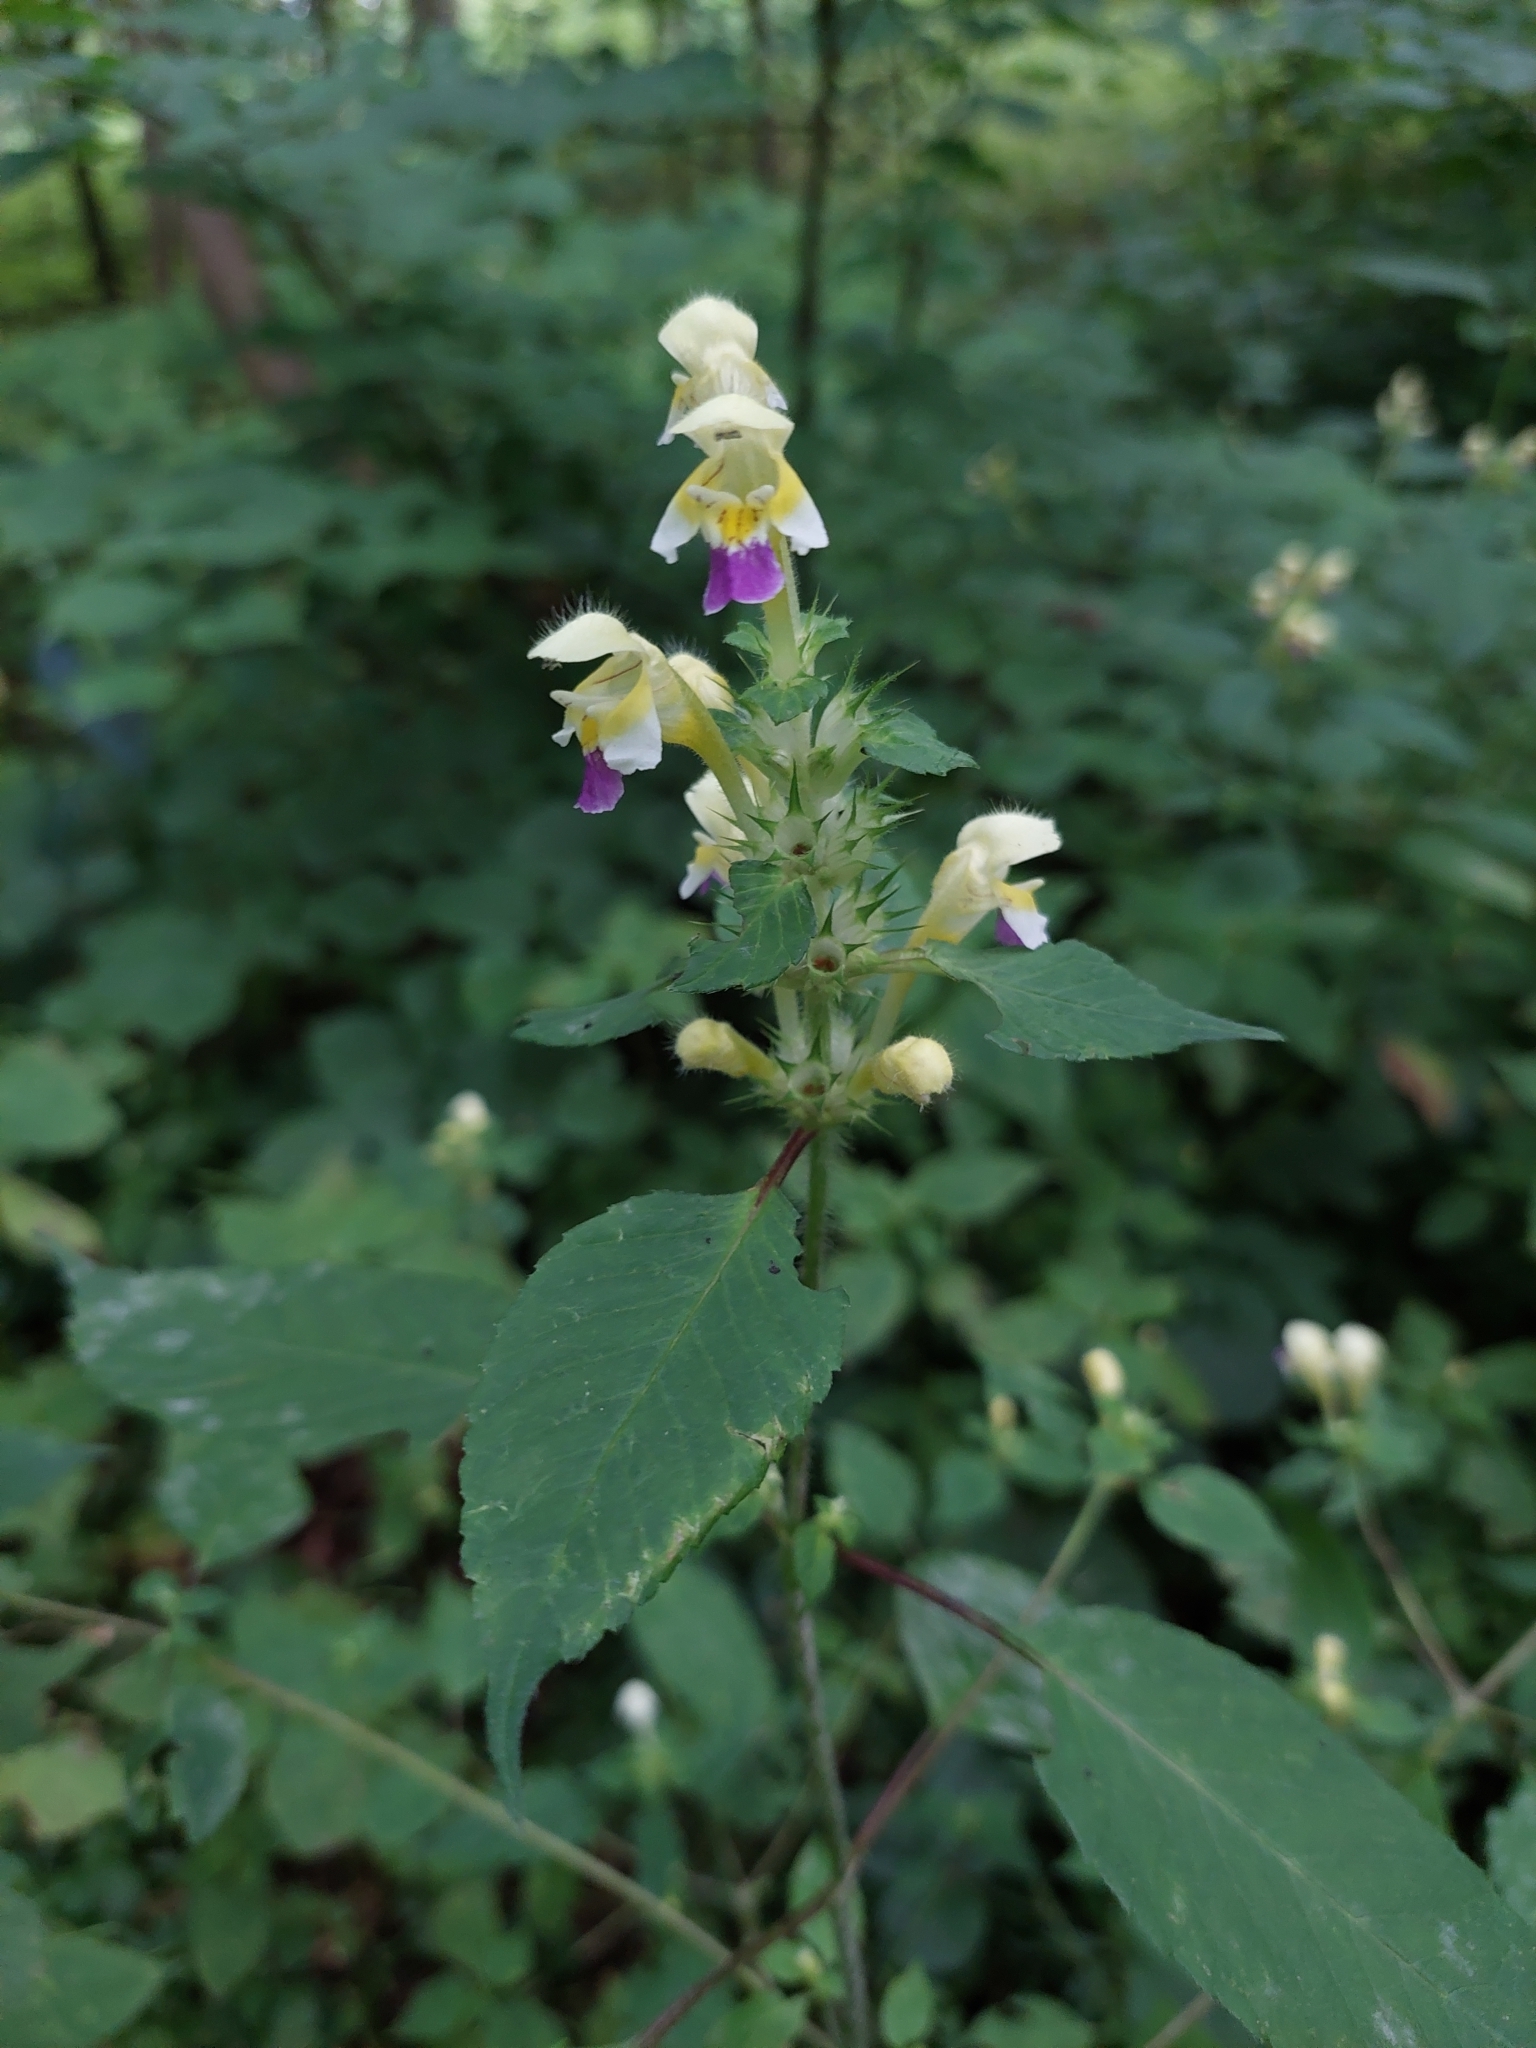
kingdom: Plantae
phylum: Tracheophyta
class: Magnoliopsida
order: Lamiales
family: Lamiaceae
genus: Galeopsis
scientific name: Galeopsis speciosa
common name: Large-flowered hemp-nettle
